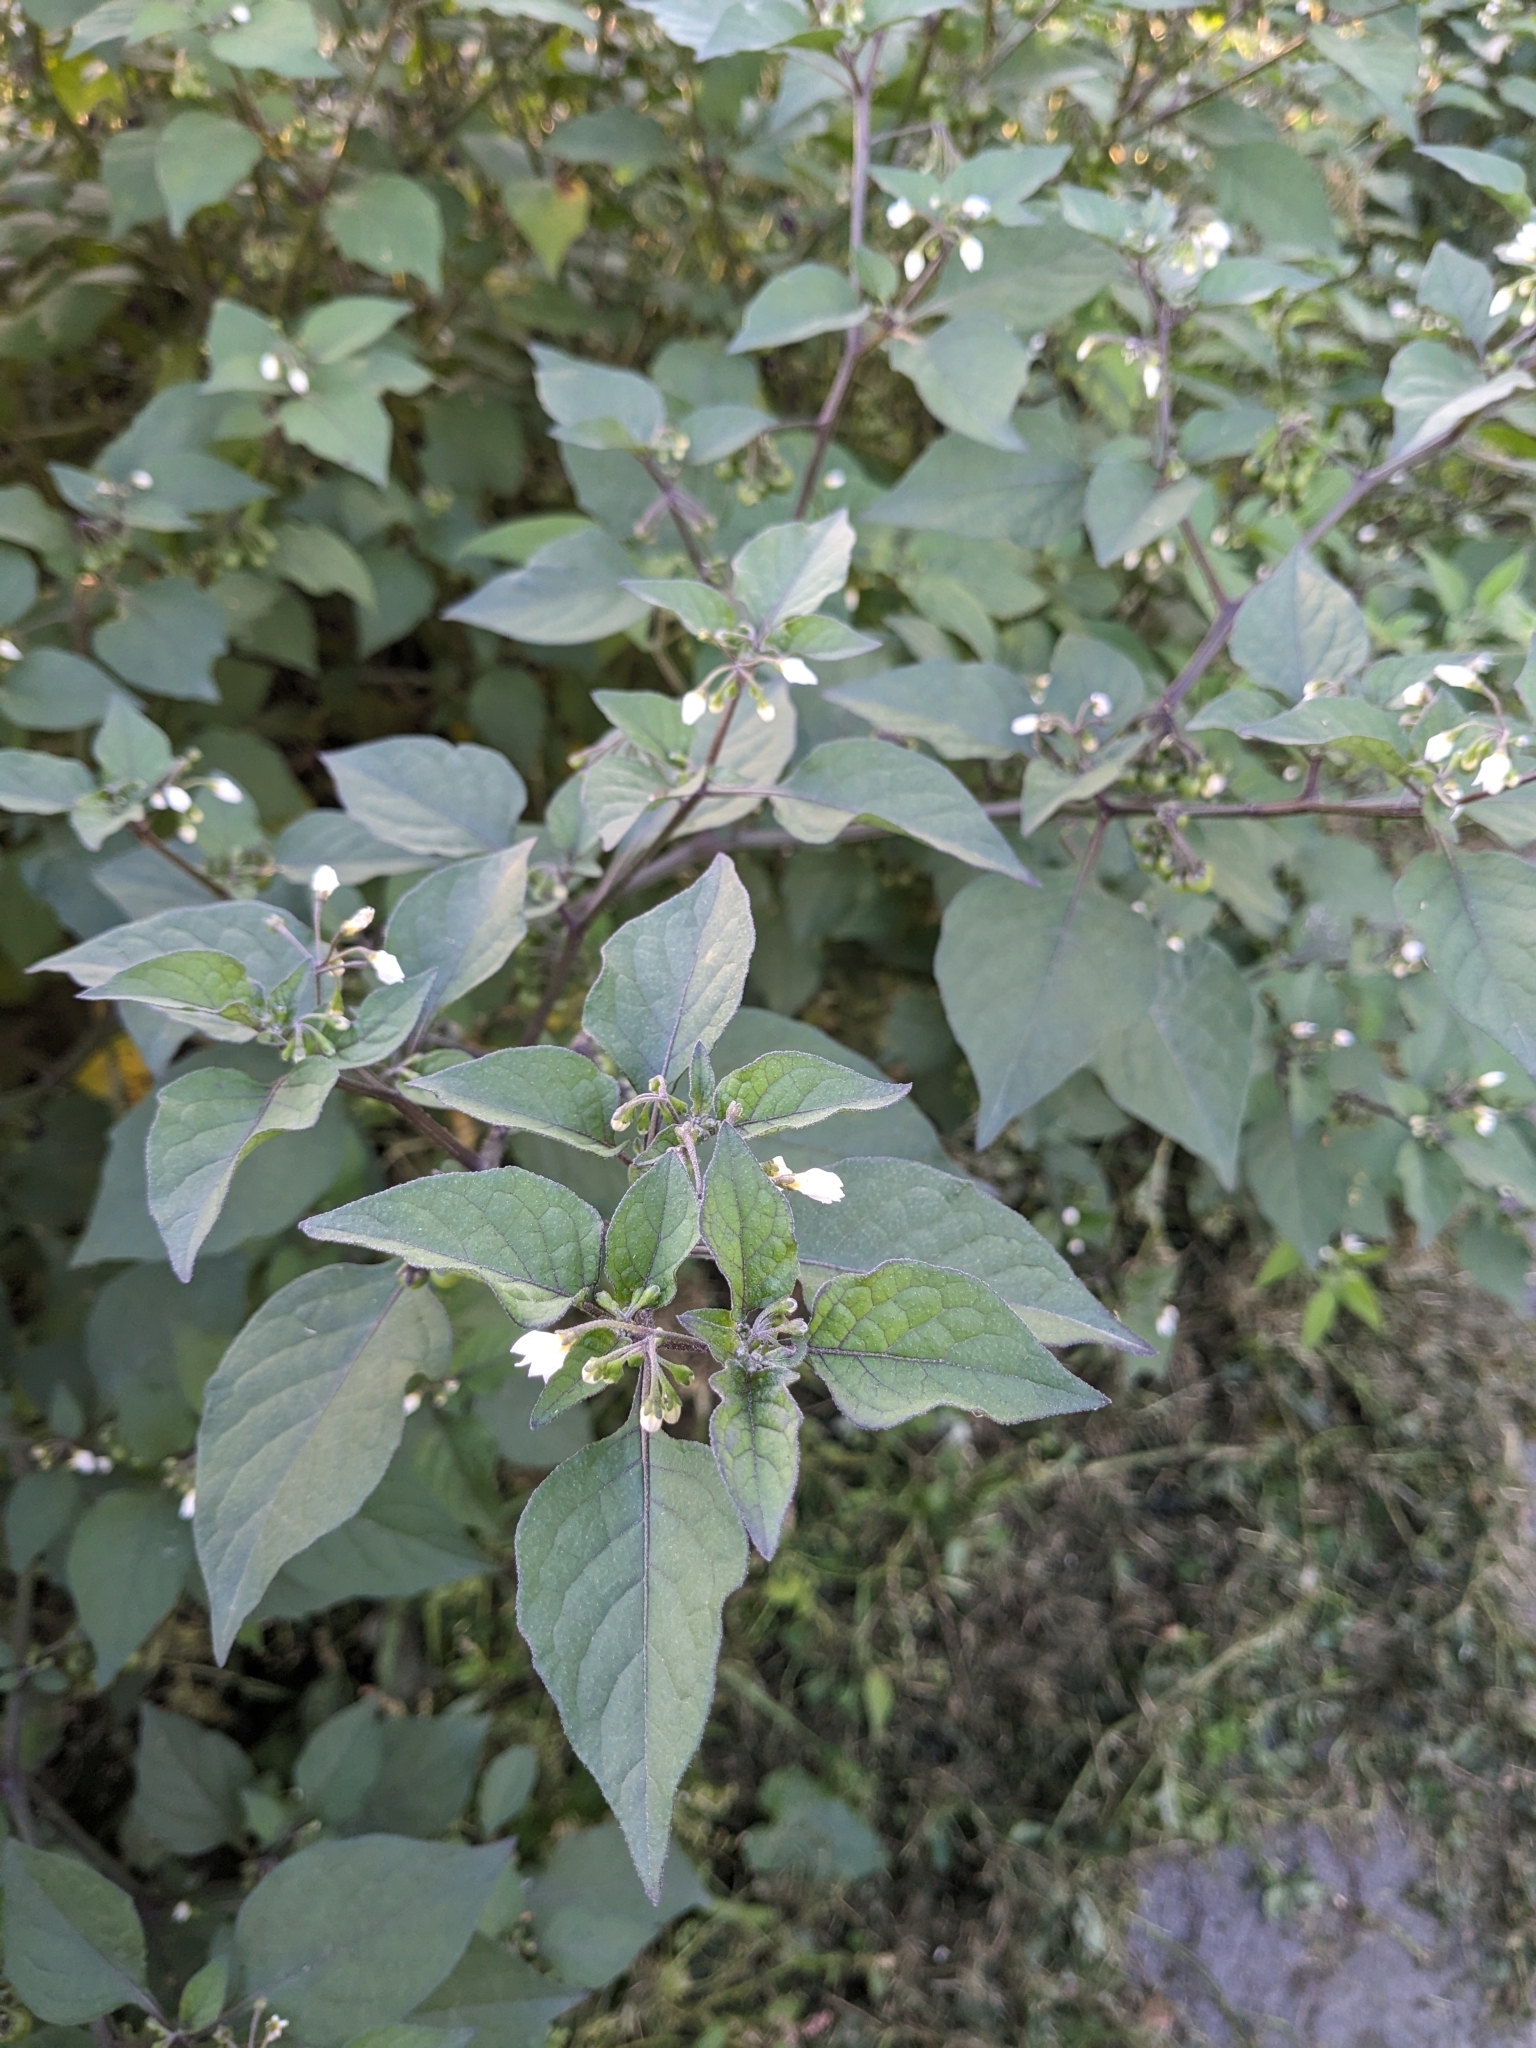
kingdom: Plantae
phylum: Tracheophyta
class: Magnoliopsida
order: Solanales
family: Solanaceae
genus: Solanum
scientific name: Solanum nigrum
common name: Black nightshade
